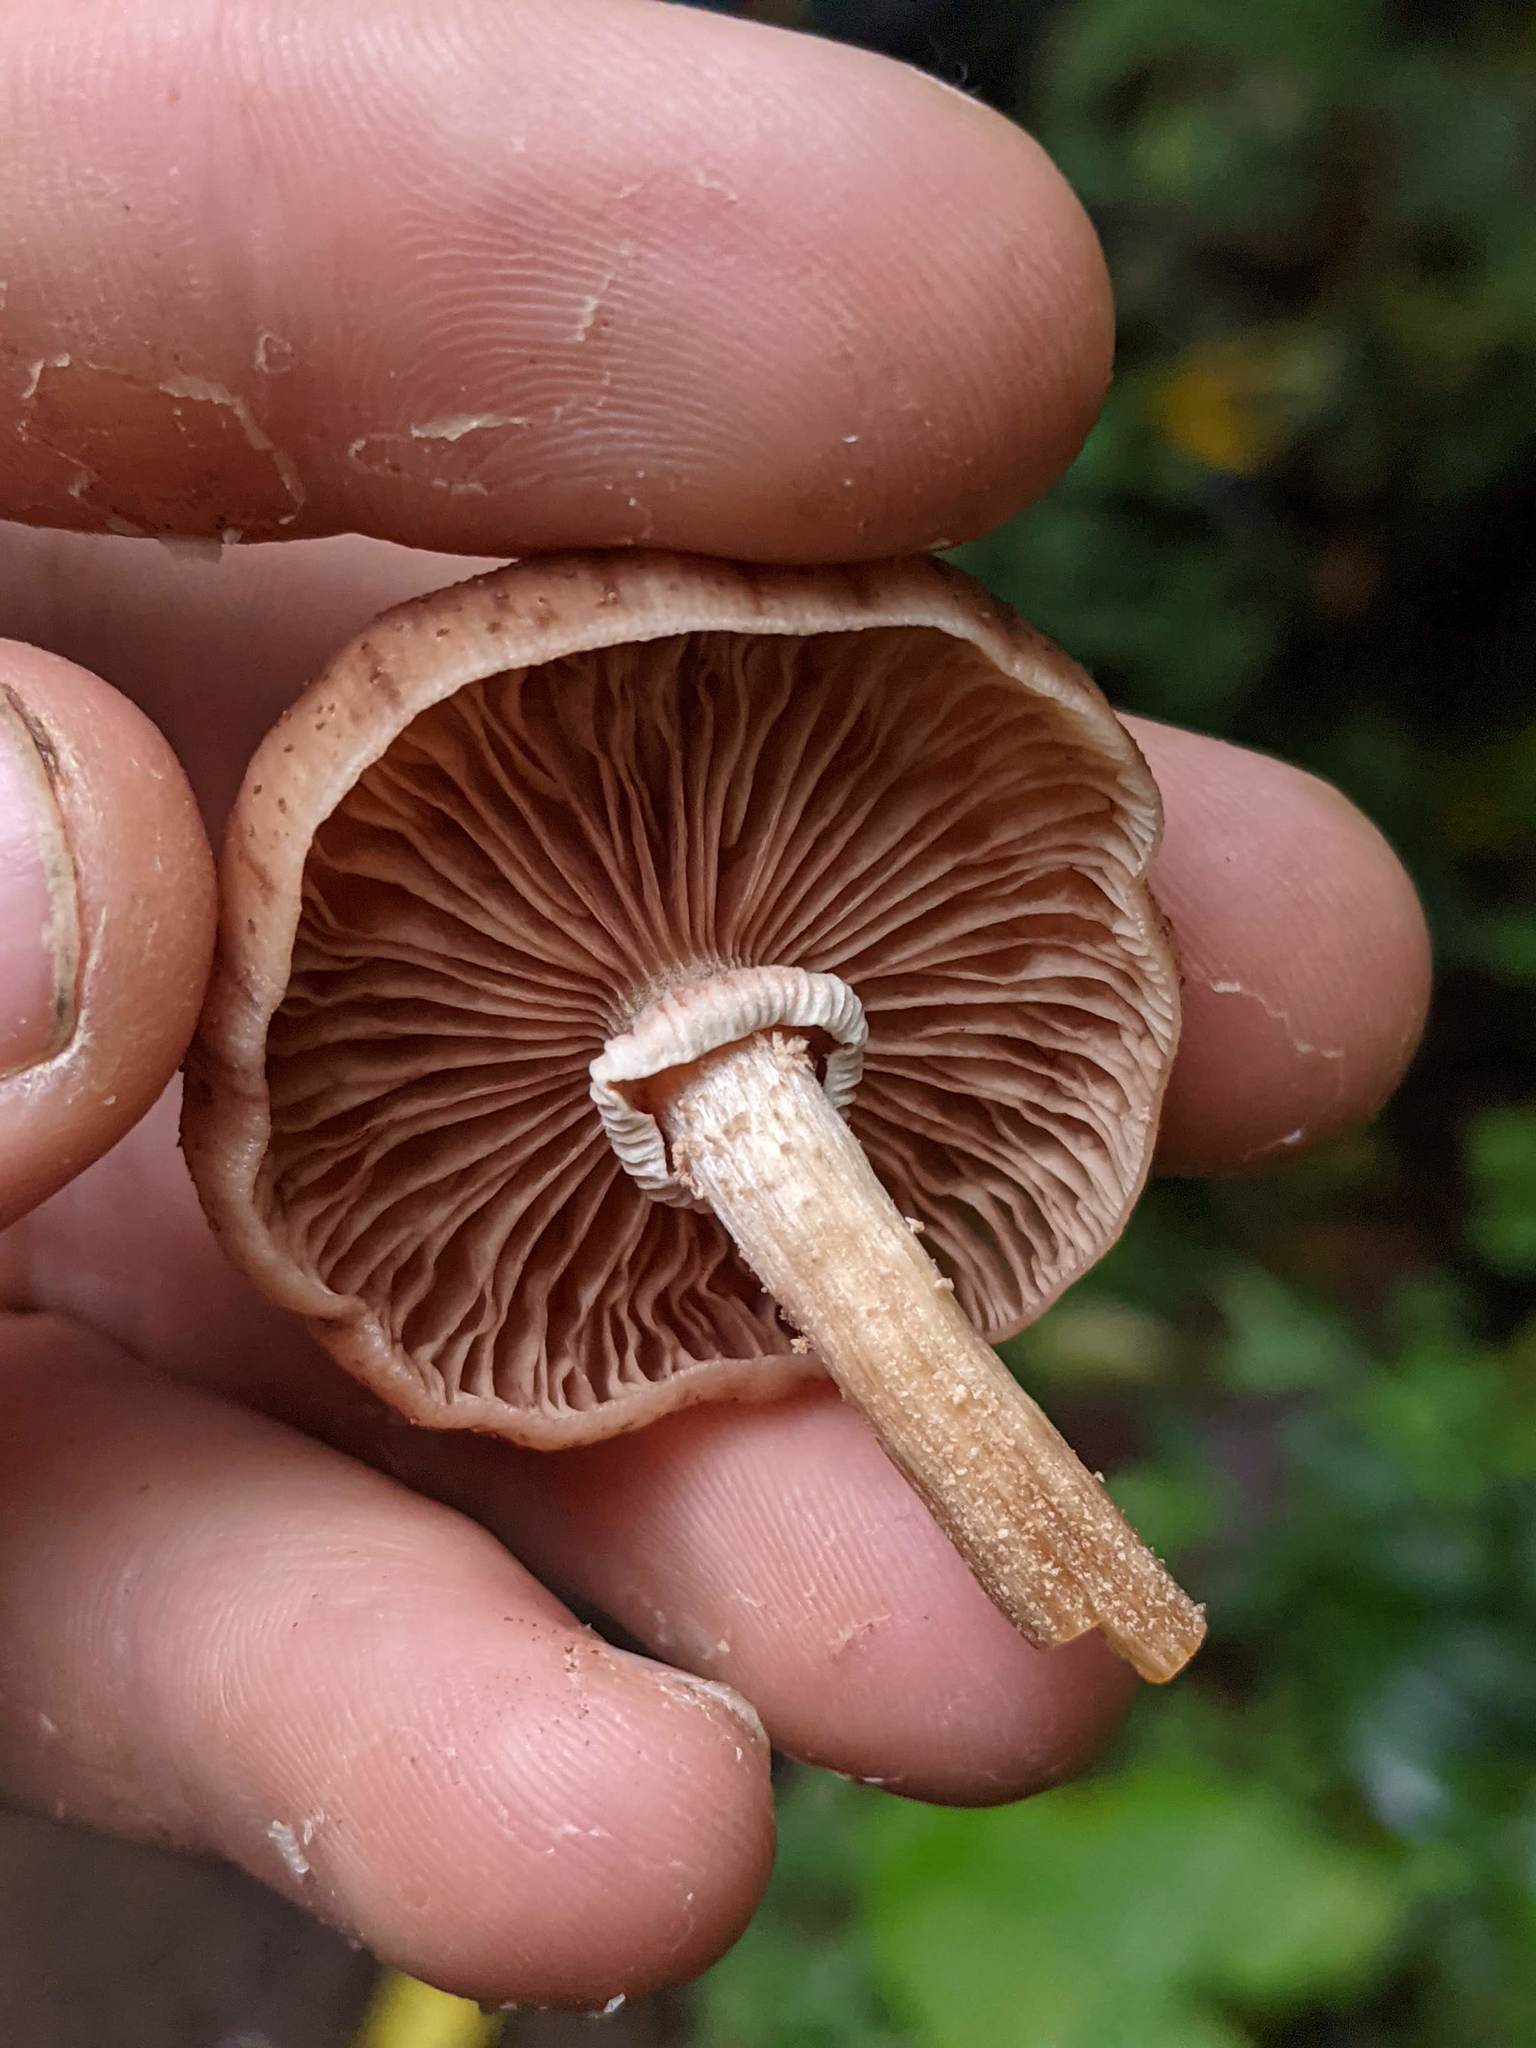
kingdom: Fungi
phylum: Basidiomycota
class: Agaricomycetes
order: Agaricales
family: Physalacriaceae
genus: Armillaria
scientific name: Armillaria puiggarii
